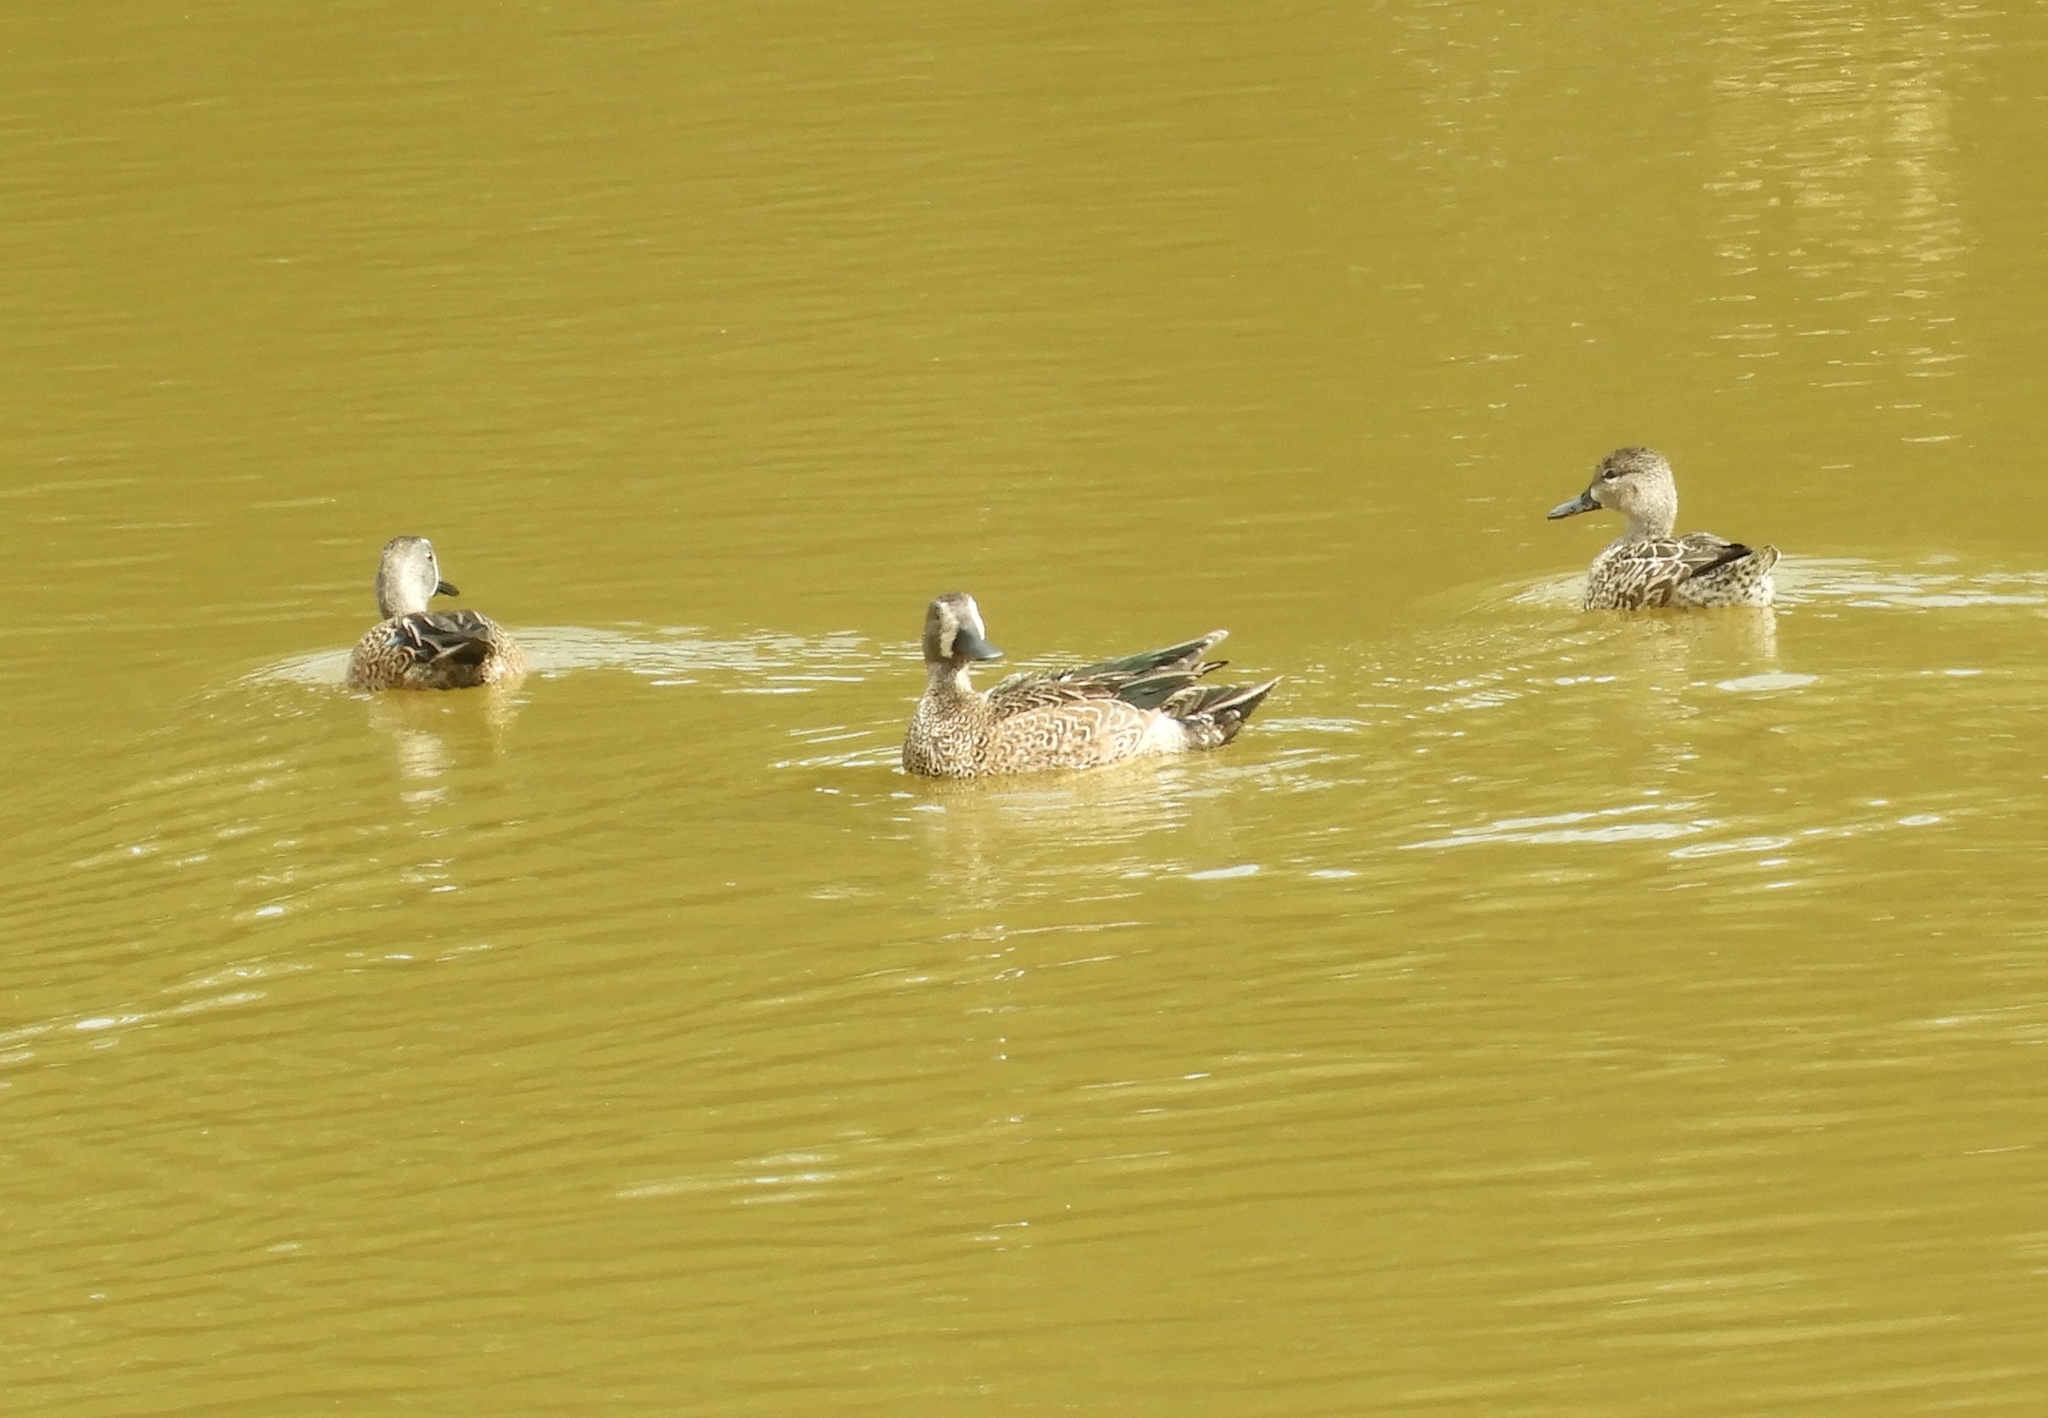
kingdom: Animalia
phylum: Chordata
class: Aves
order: Anseriformes
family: Anatidae
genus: Spatula
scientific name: Spatula discors
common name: Blue-winged teal
